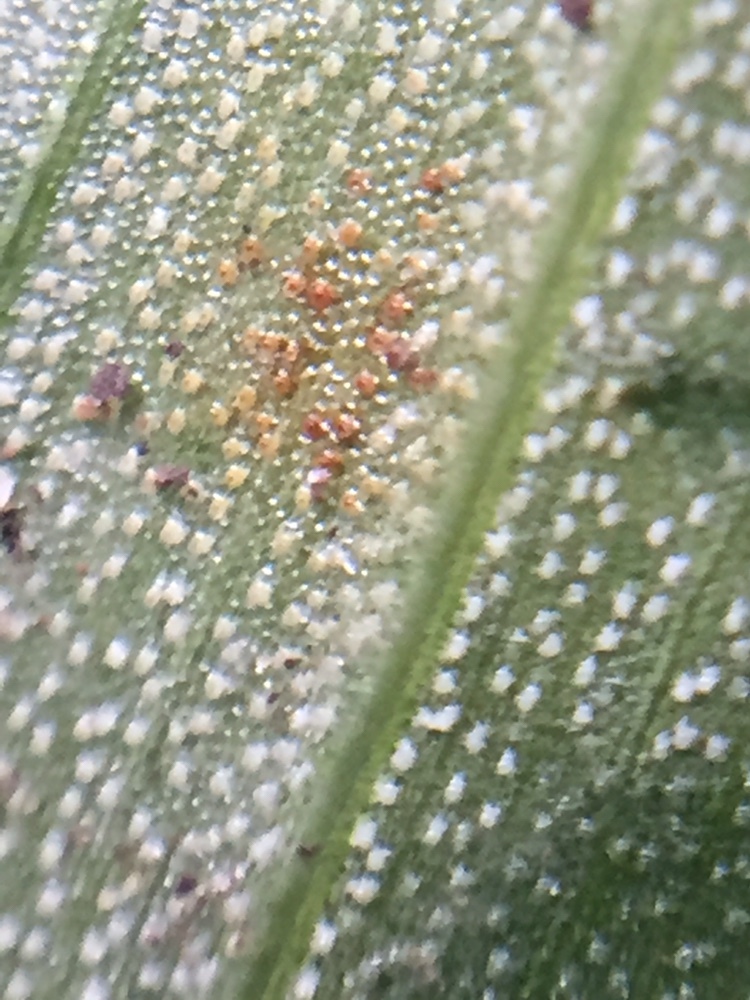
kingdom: Fungi
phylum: Basidiomycota
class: Exobasidiomycetes
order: Exobasidiales
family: Brachybasidiaceae
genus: Kordyana
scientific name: Kordyana brasiliensis
